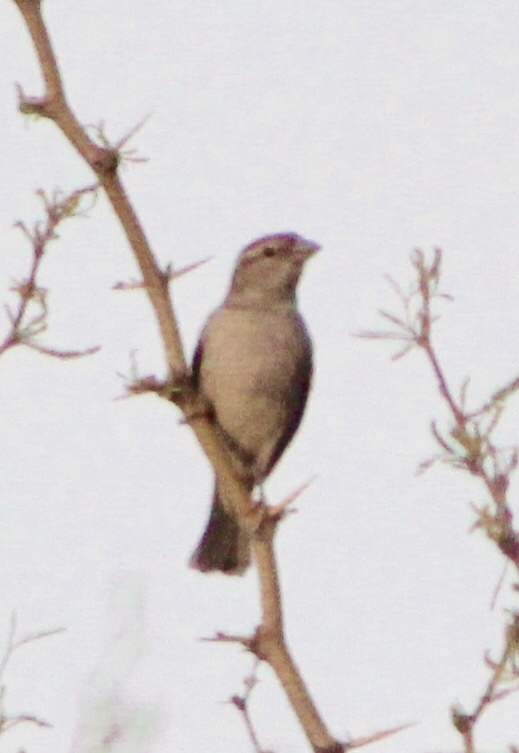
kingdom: Animalia
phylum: Chordata
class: Aves
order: Passeriformes
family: Passeridae
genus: Passer
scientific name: Passer domesticus
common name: House sparrow
